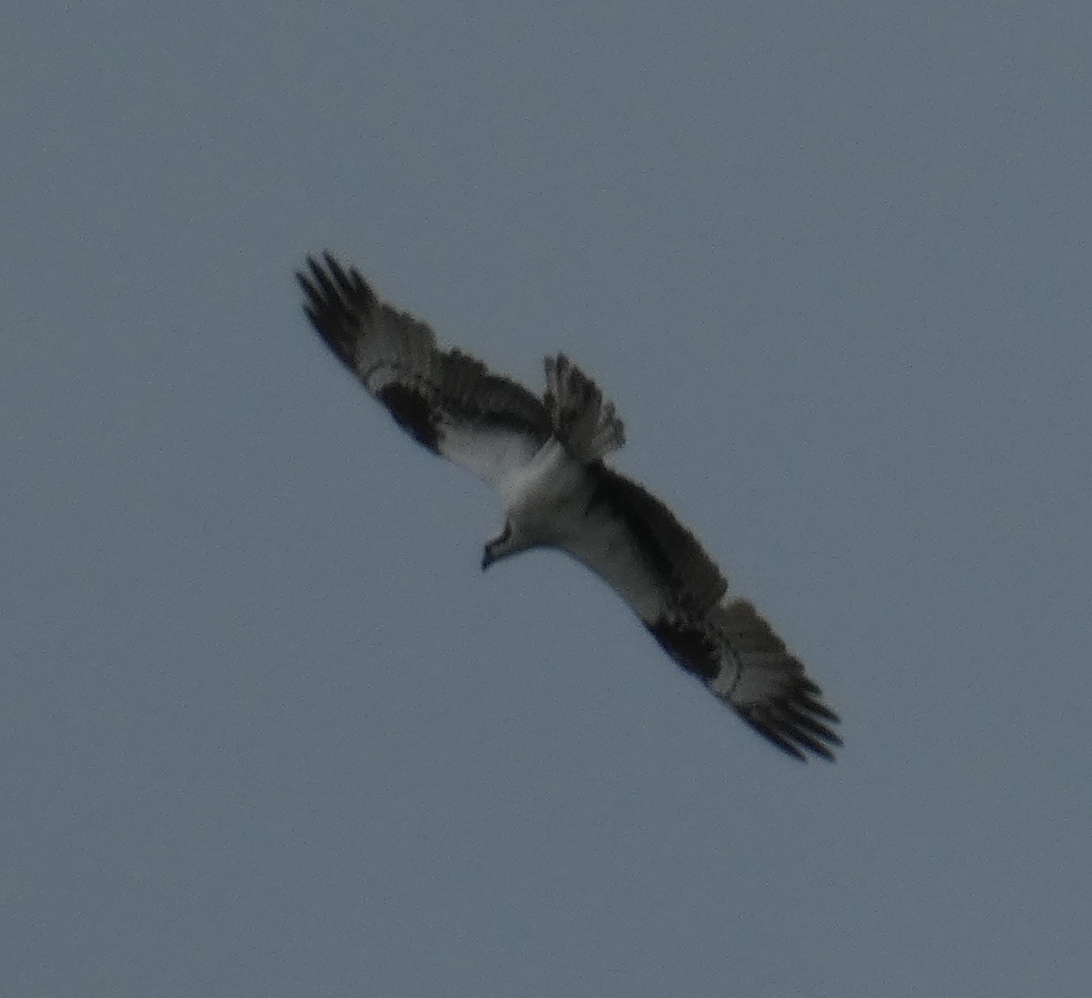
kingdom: Animalia
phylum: Chordata
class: Aves
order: Accipitriformes
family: Pandionidae
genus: Pandion
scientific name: Pandion haliaetus
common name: Osprey
